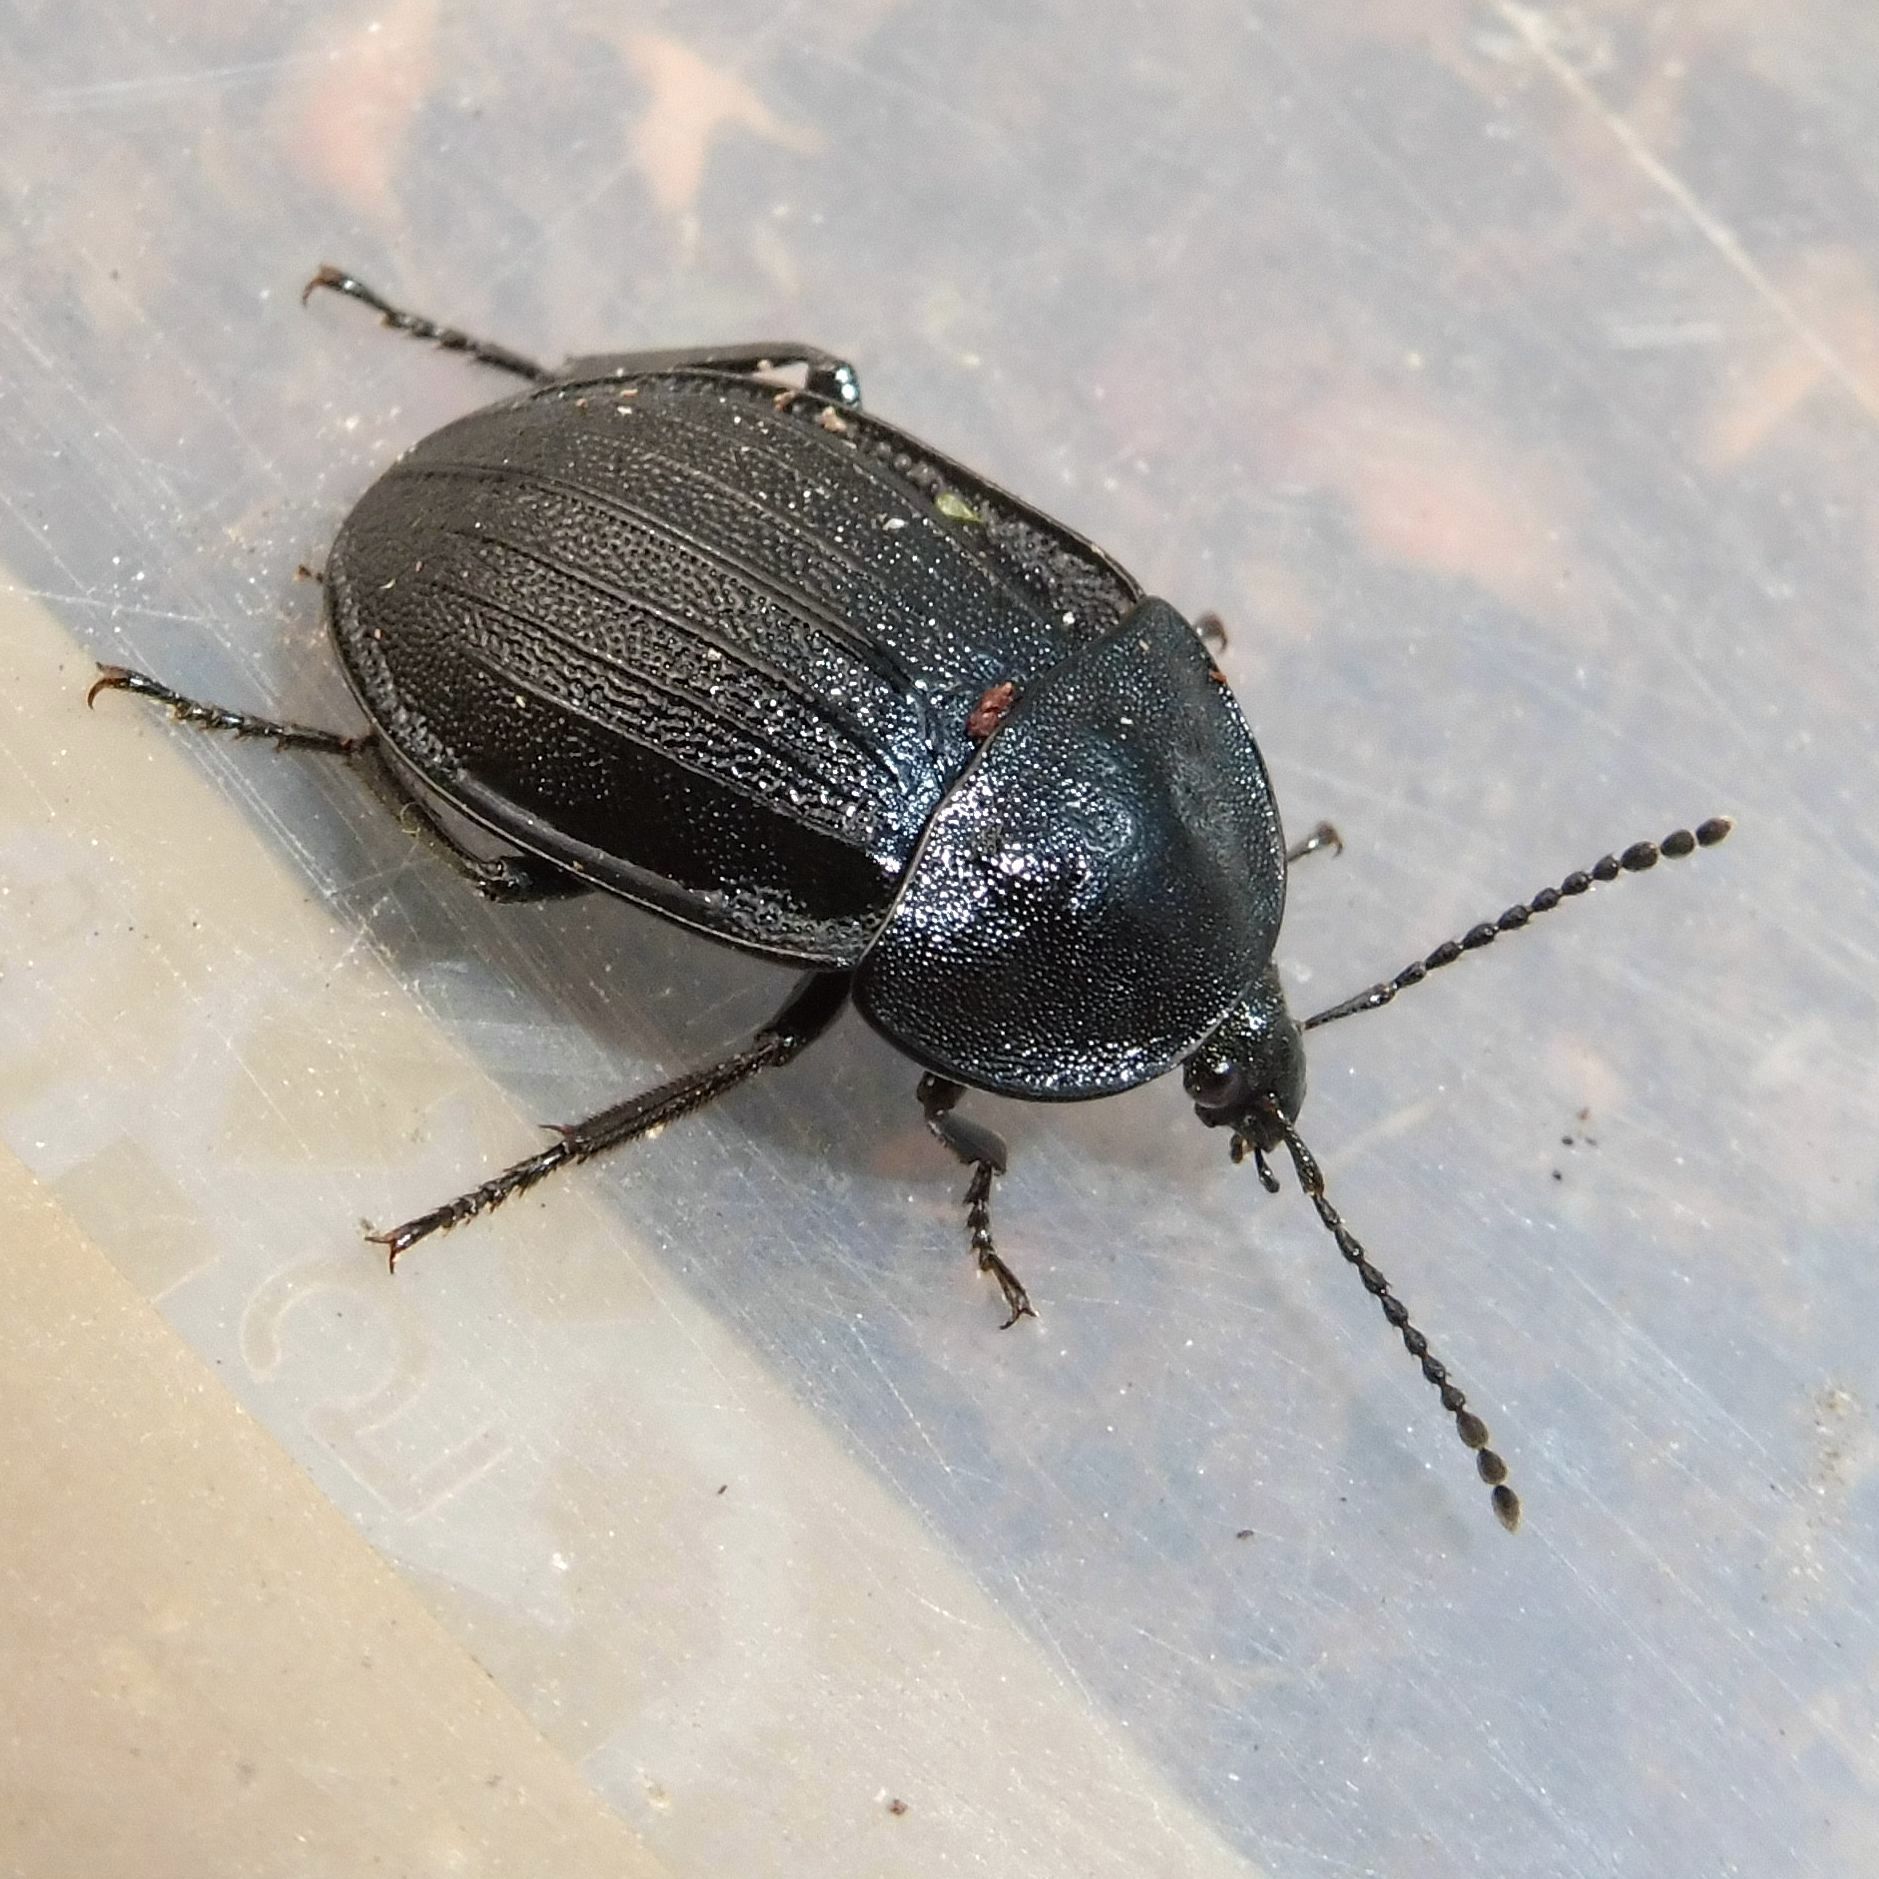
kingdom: Animalia
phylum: Arthropoda
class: Insecta
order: Coleoptera
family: Staphylinidae
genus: Silpha
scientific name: Silpha atrata
